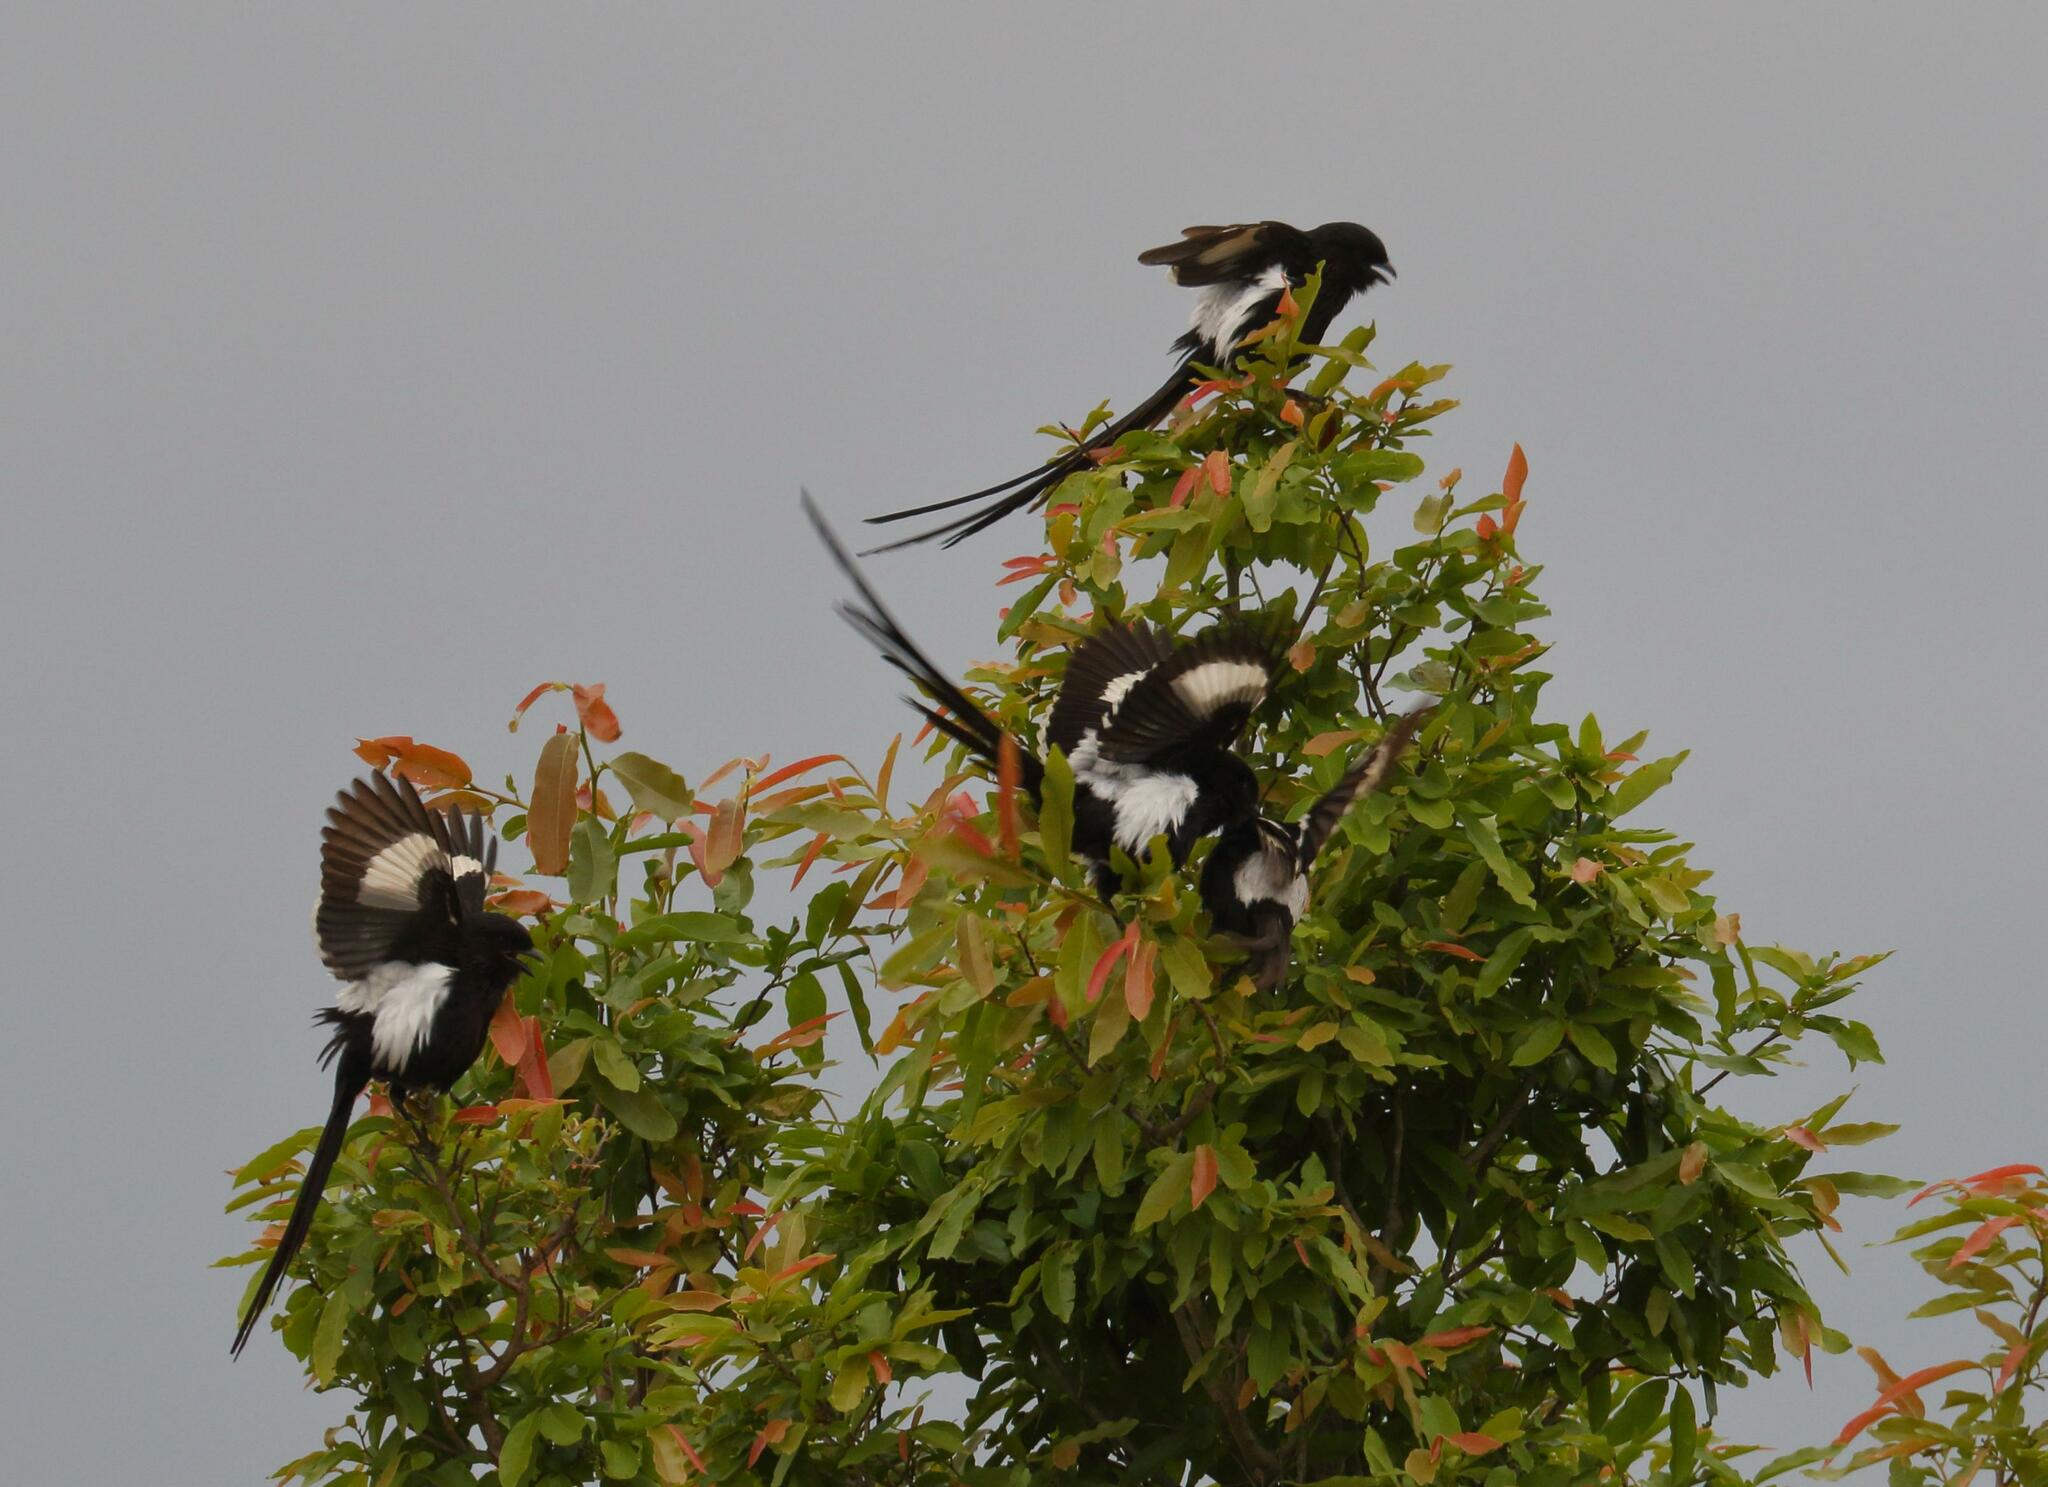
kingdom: Animalia
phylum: Chordata
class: Aves
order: Passeriformes
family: Laniidae
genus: Urolestes
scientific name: Urolestes melanoleucus
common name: Magpie shrike
